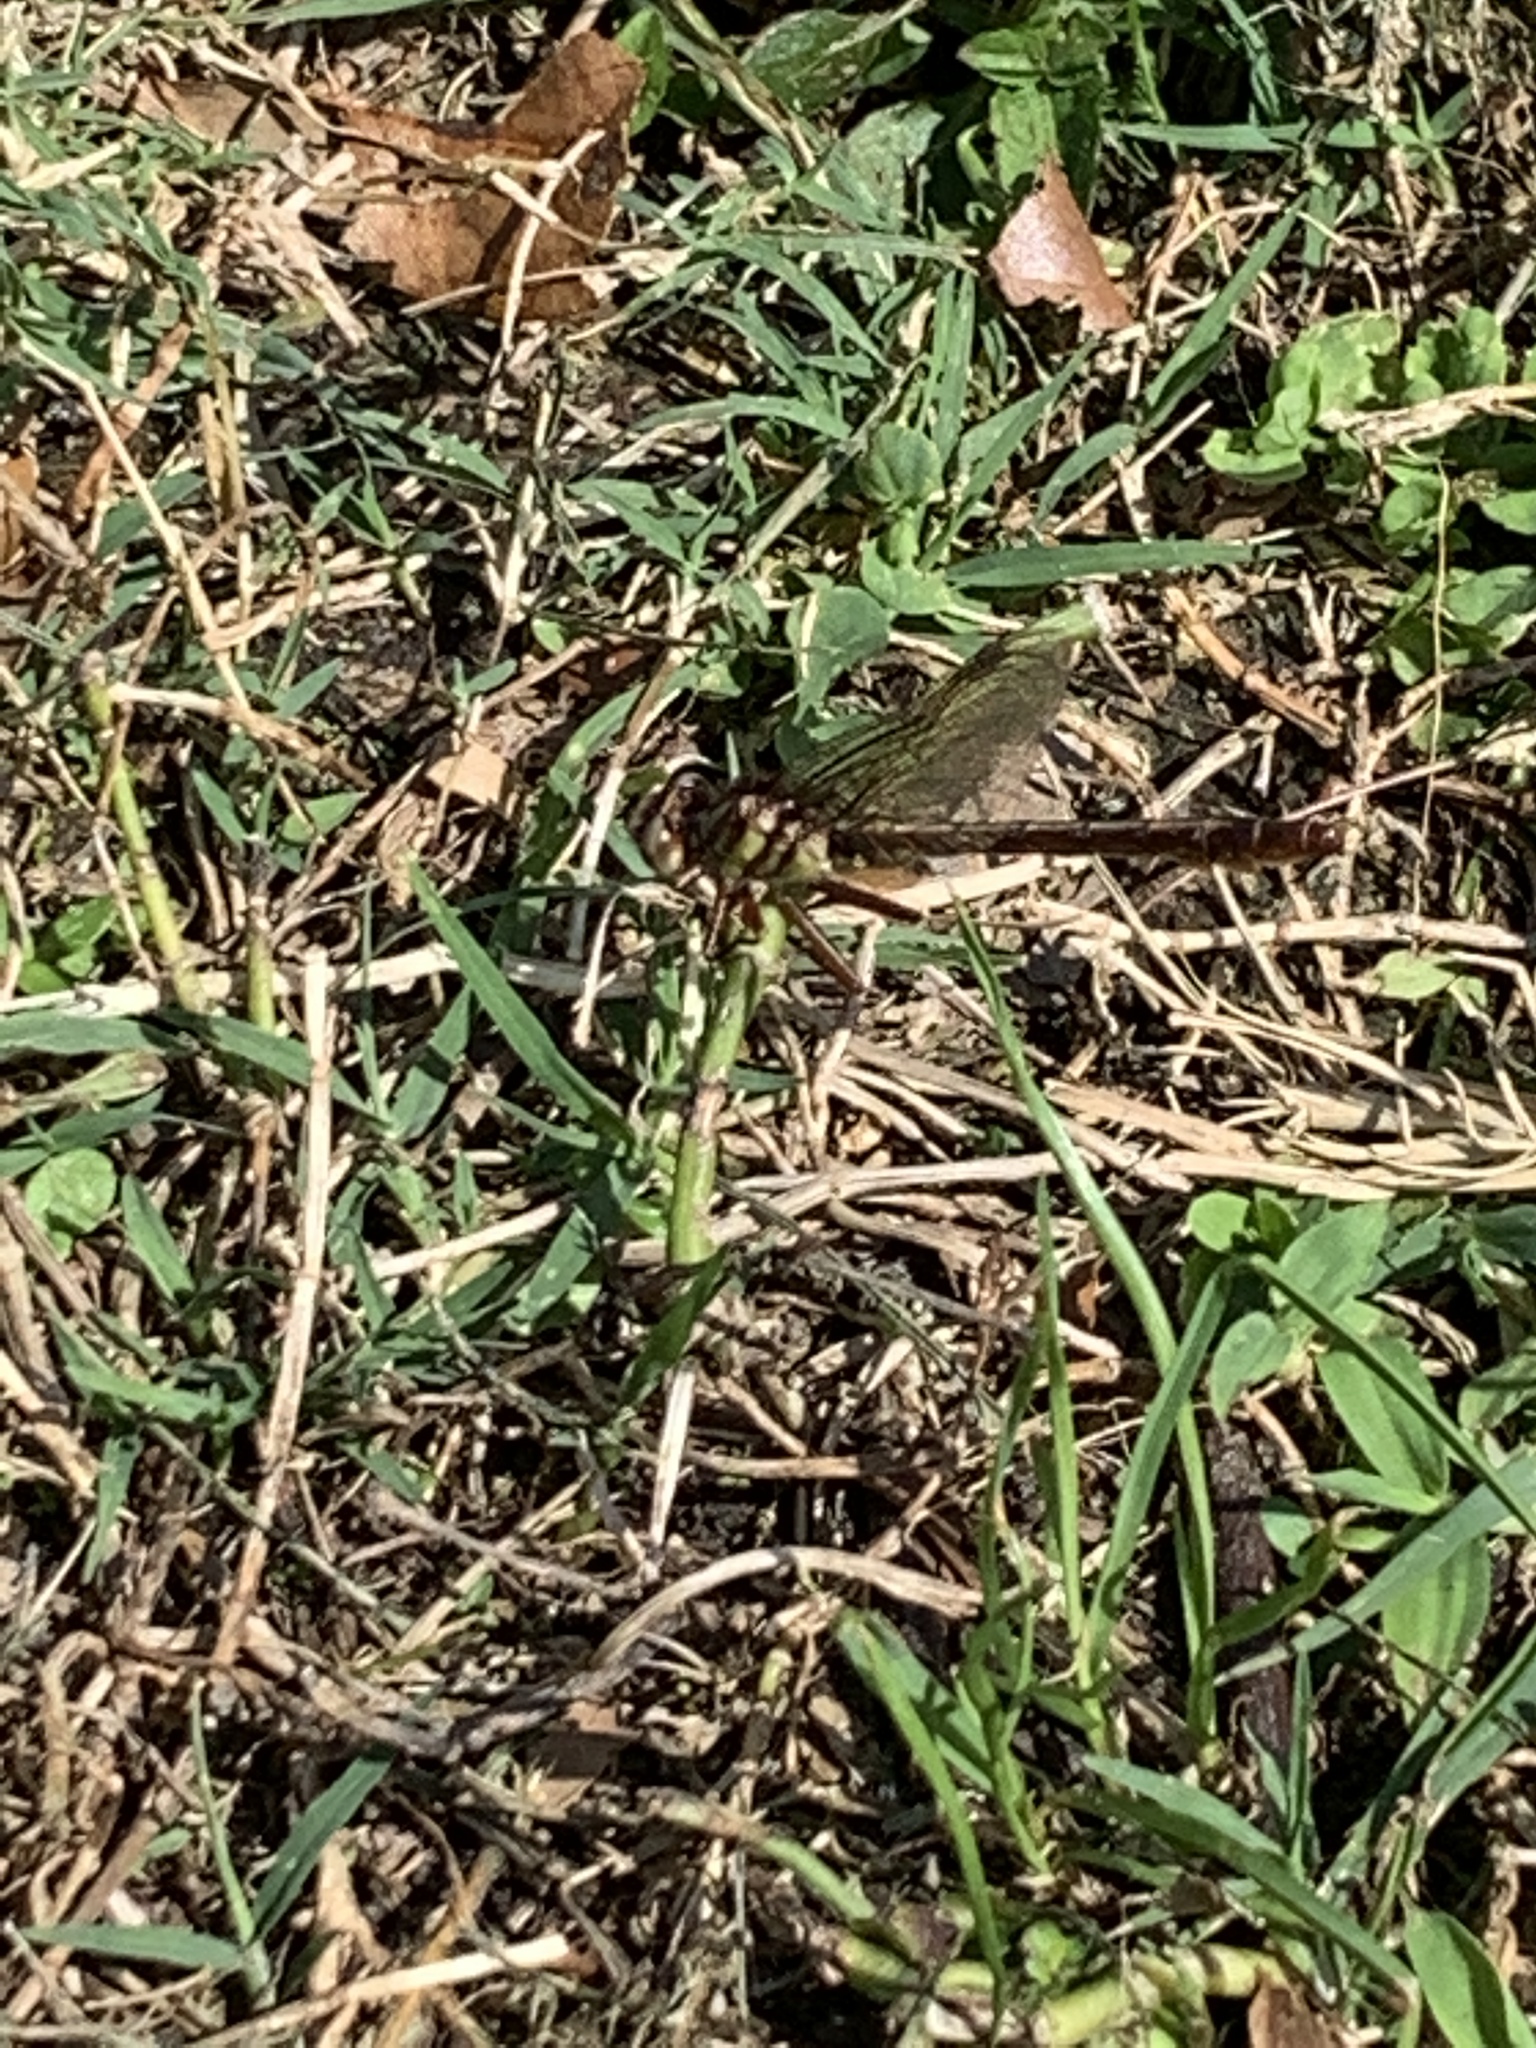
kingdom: Animalia
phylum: Arthropoda
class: Insecta
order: Odonata
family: Gomphidae
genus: Phanogomphus
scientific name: Phanogomphus cavillaris
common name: Sandhill clubtail
